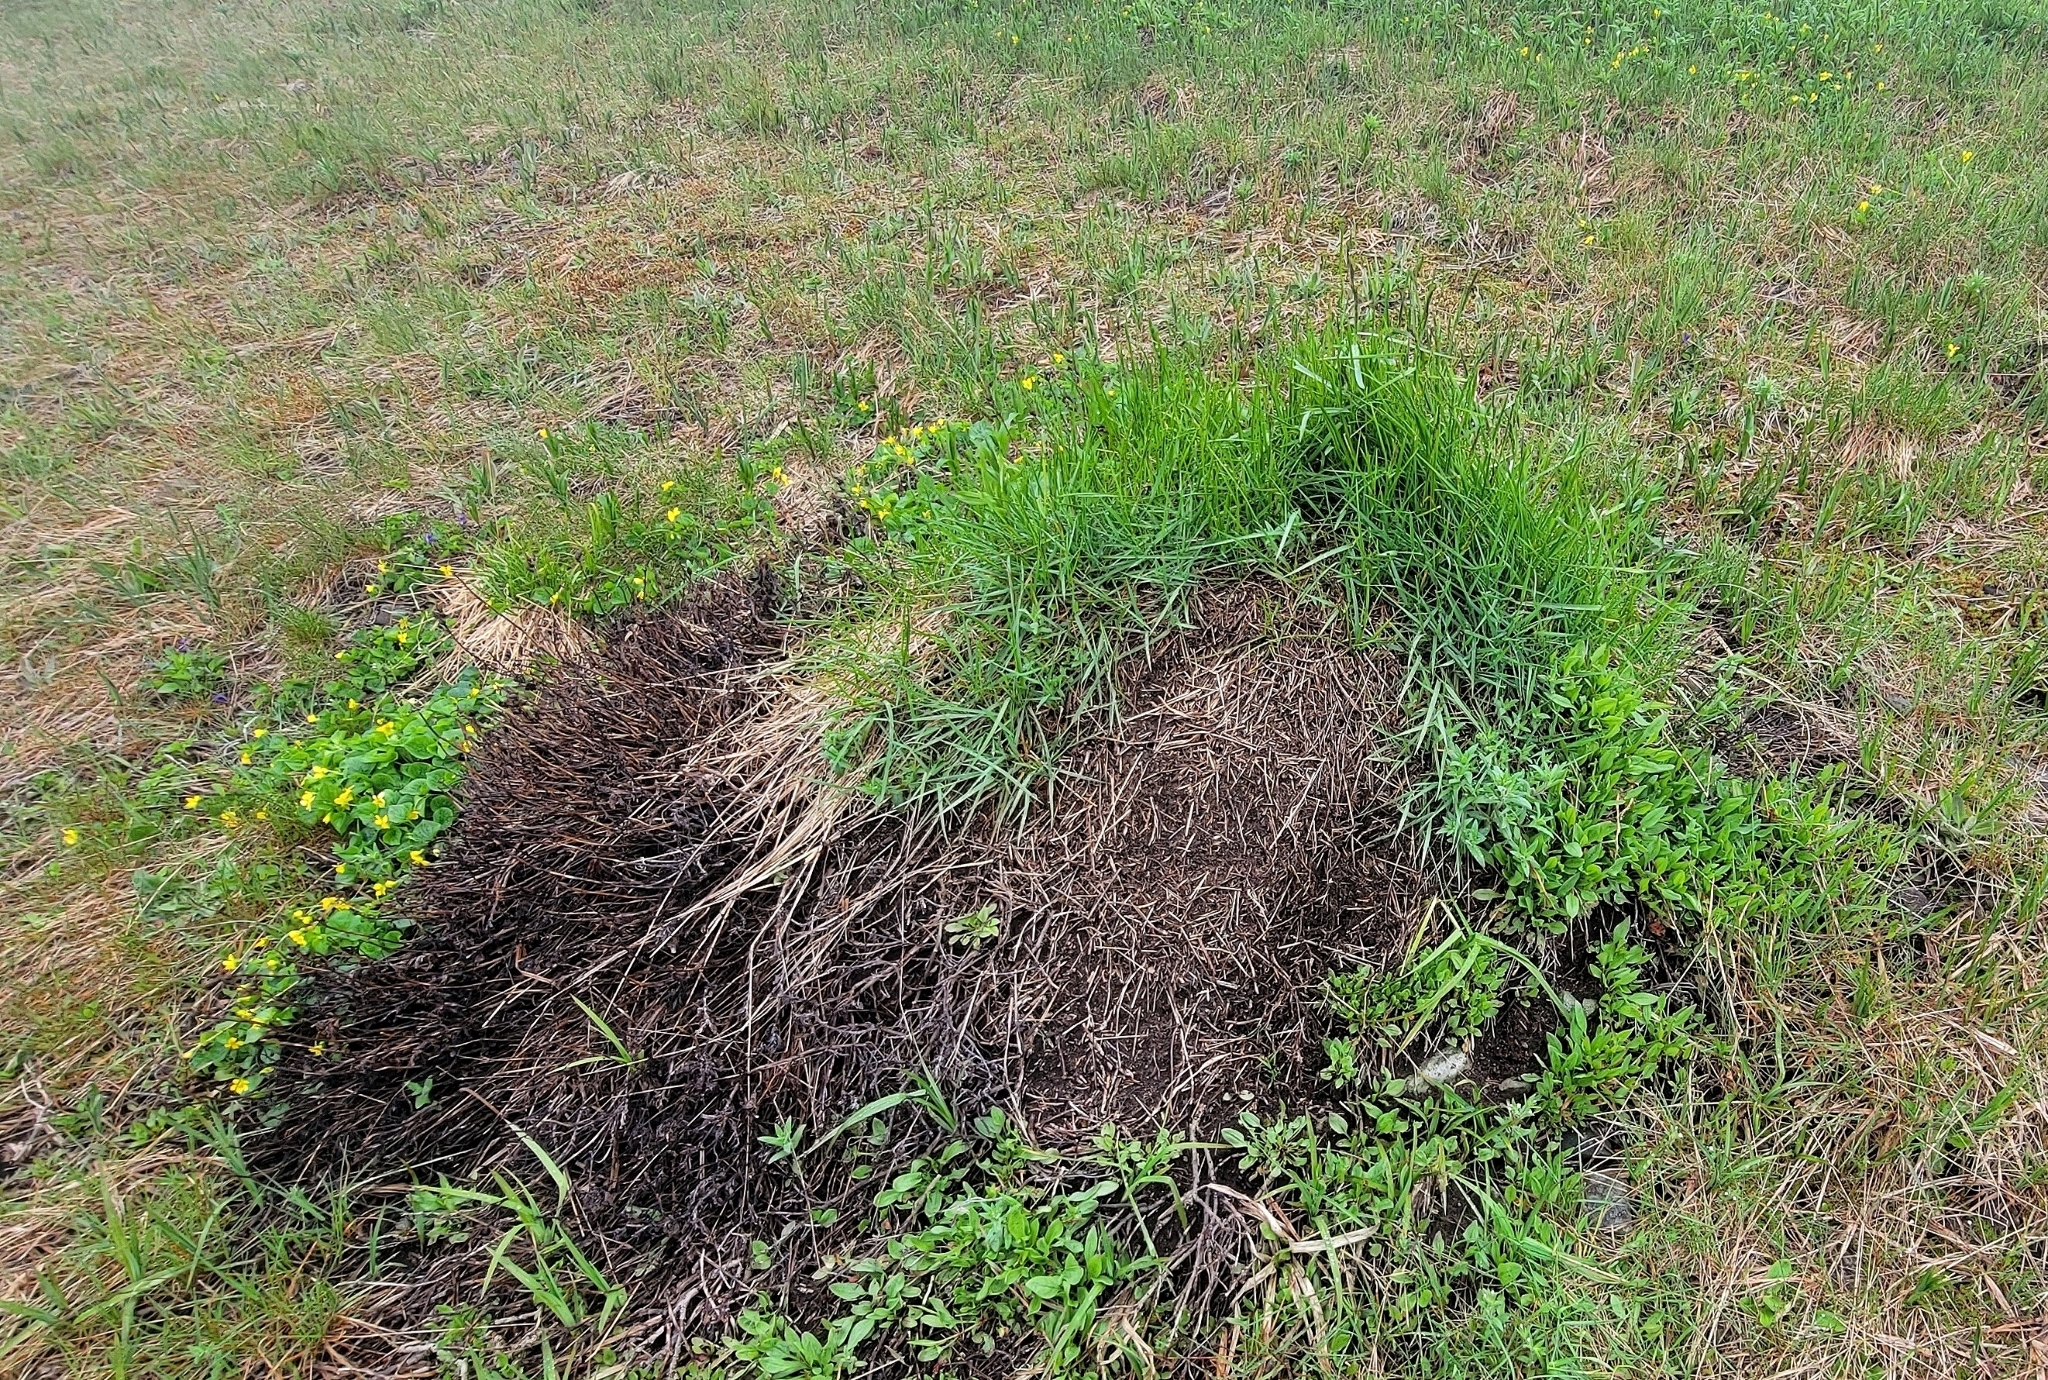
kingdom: Animalia
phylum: Arthropoda
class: Insecta
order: Hymenoptera
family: Formicidae
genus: Formica
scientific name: Formica obscuripes
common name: Western thatching ant
